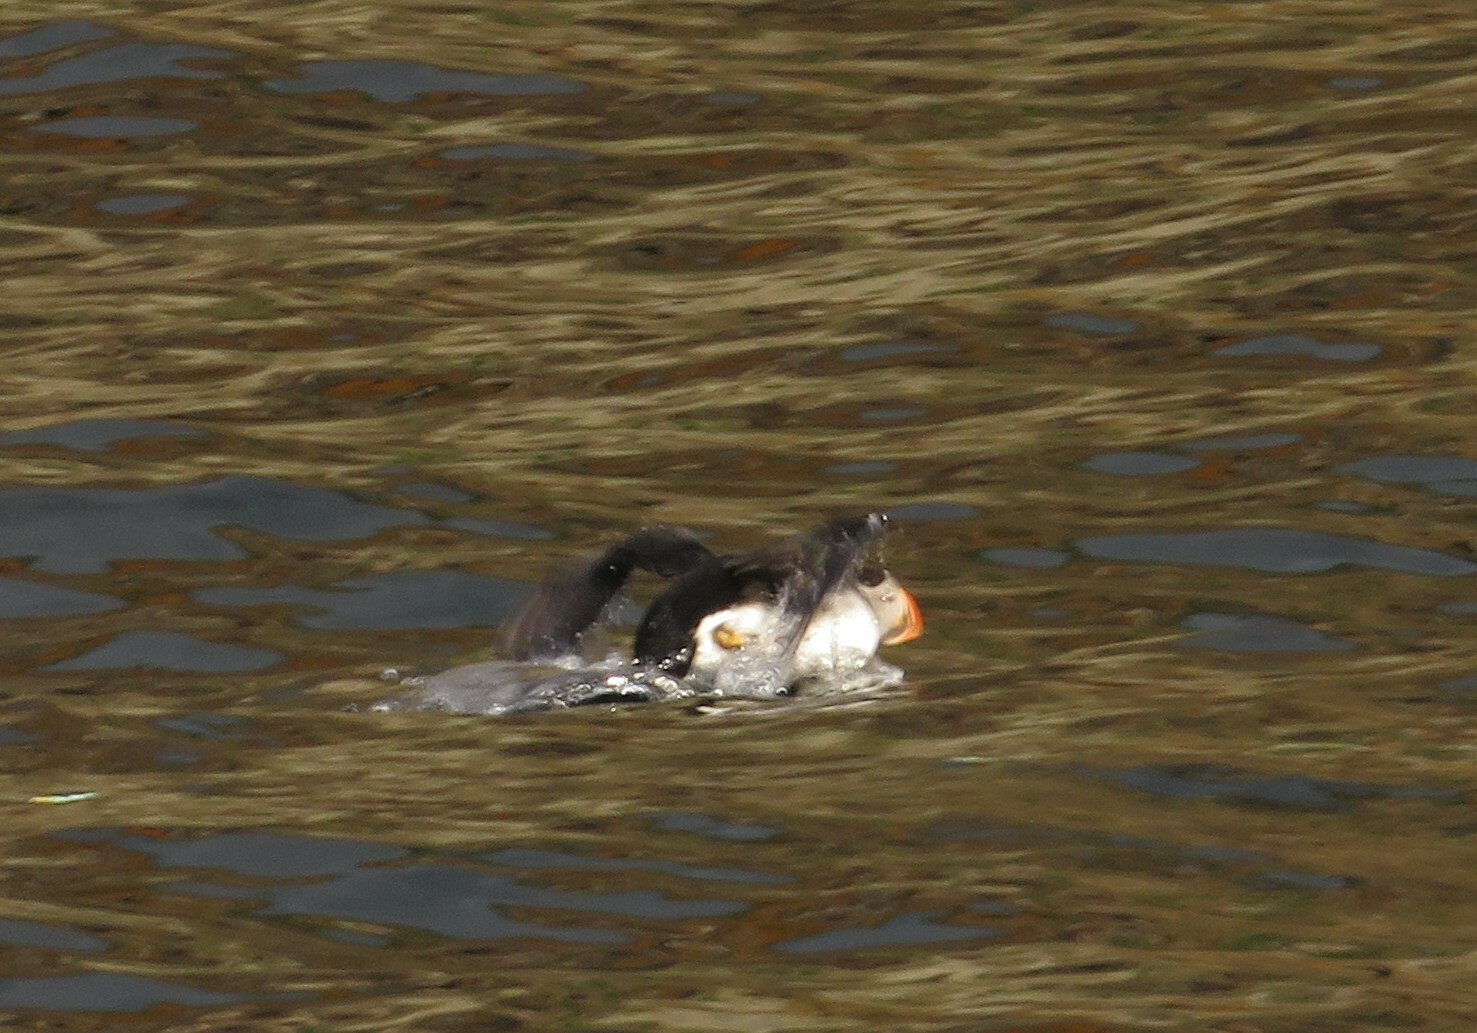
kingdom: Animalia
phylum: Chordata
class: Aves
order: Charadriiformes
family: Alcidae
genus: Fratercula
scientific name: Fratercula arctica
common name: Atlantic puffin
